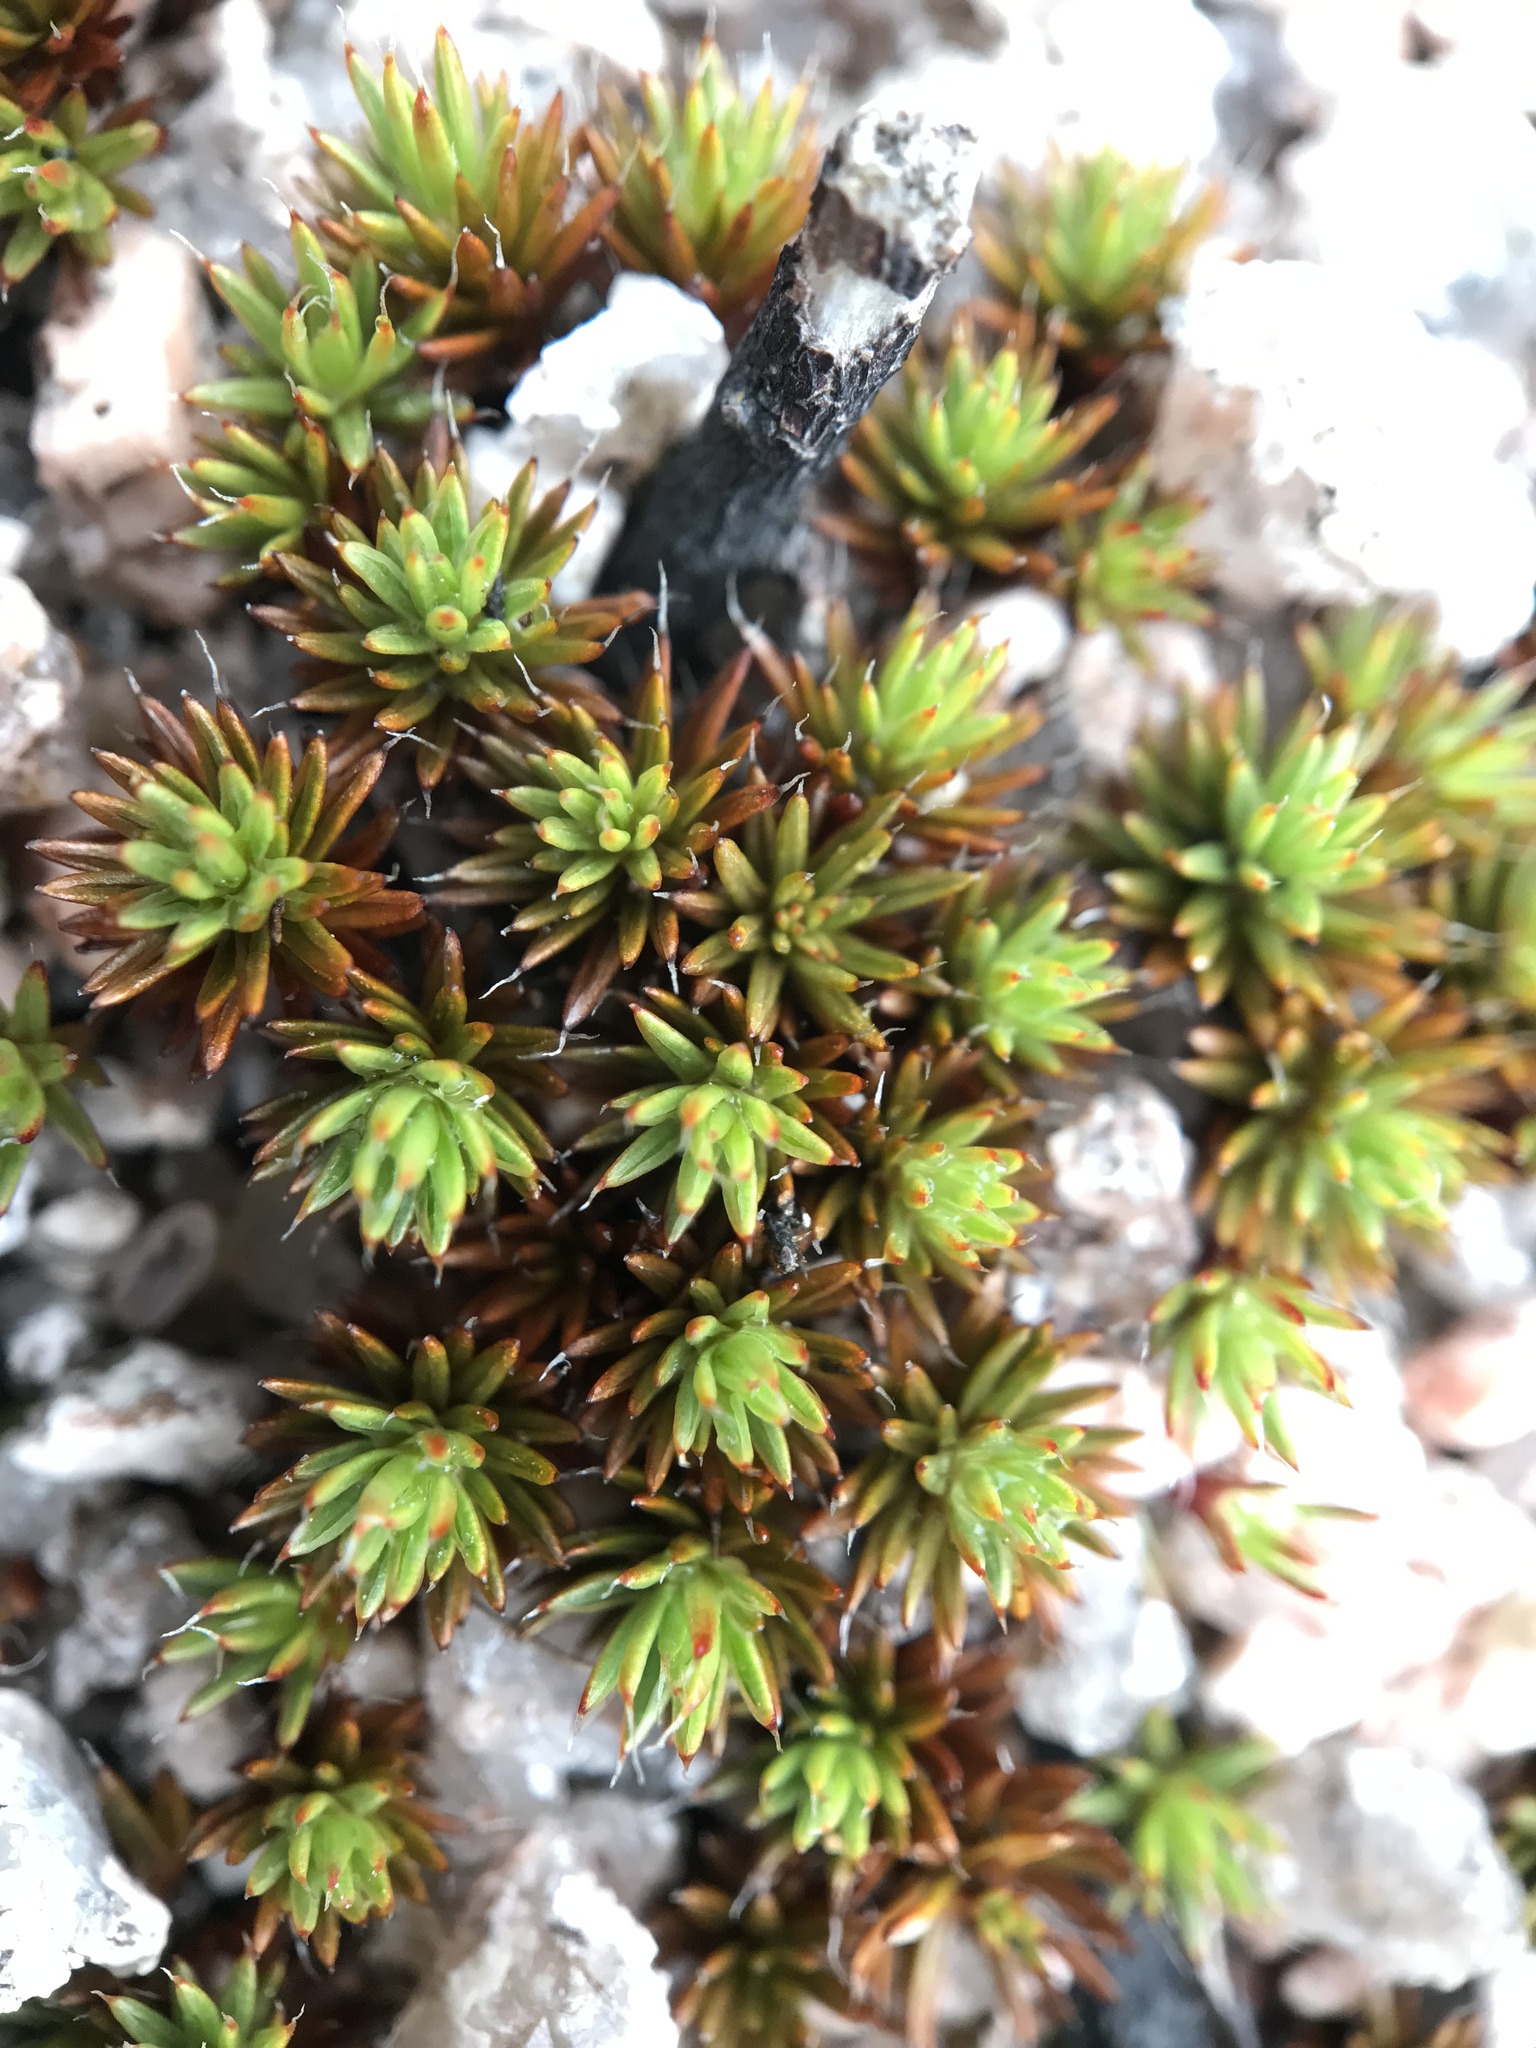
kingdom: Plantae
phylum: Bryophyta
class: Polytrichopsida
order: Polytrichales
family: Polytrichaceae
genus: Polytrichum
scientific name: Polytrichum piliferum
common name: Bristly haircap
